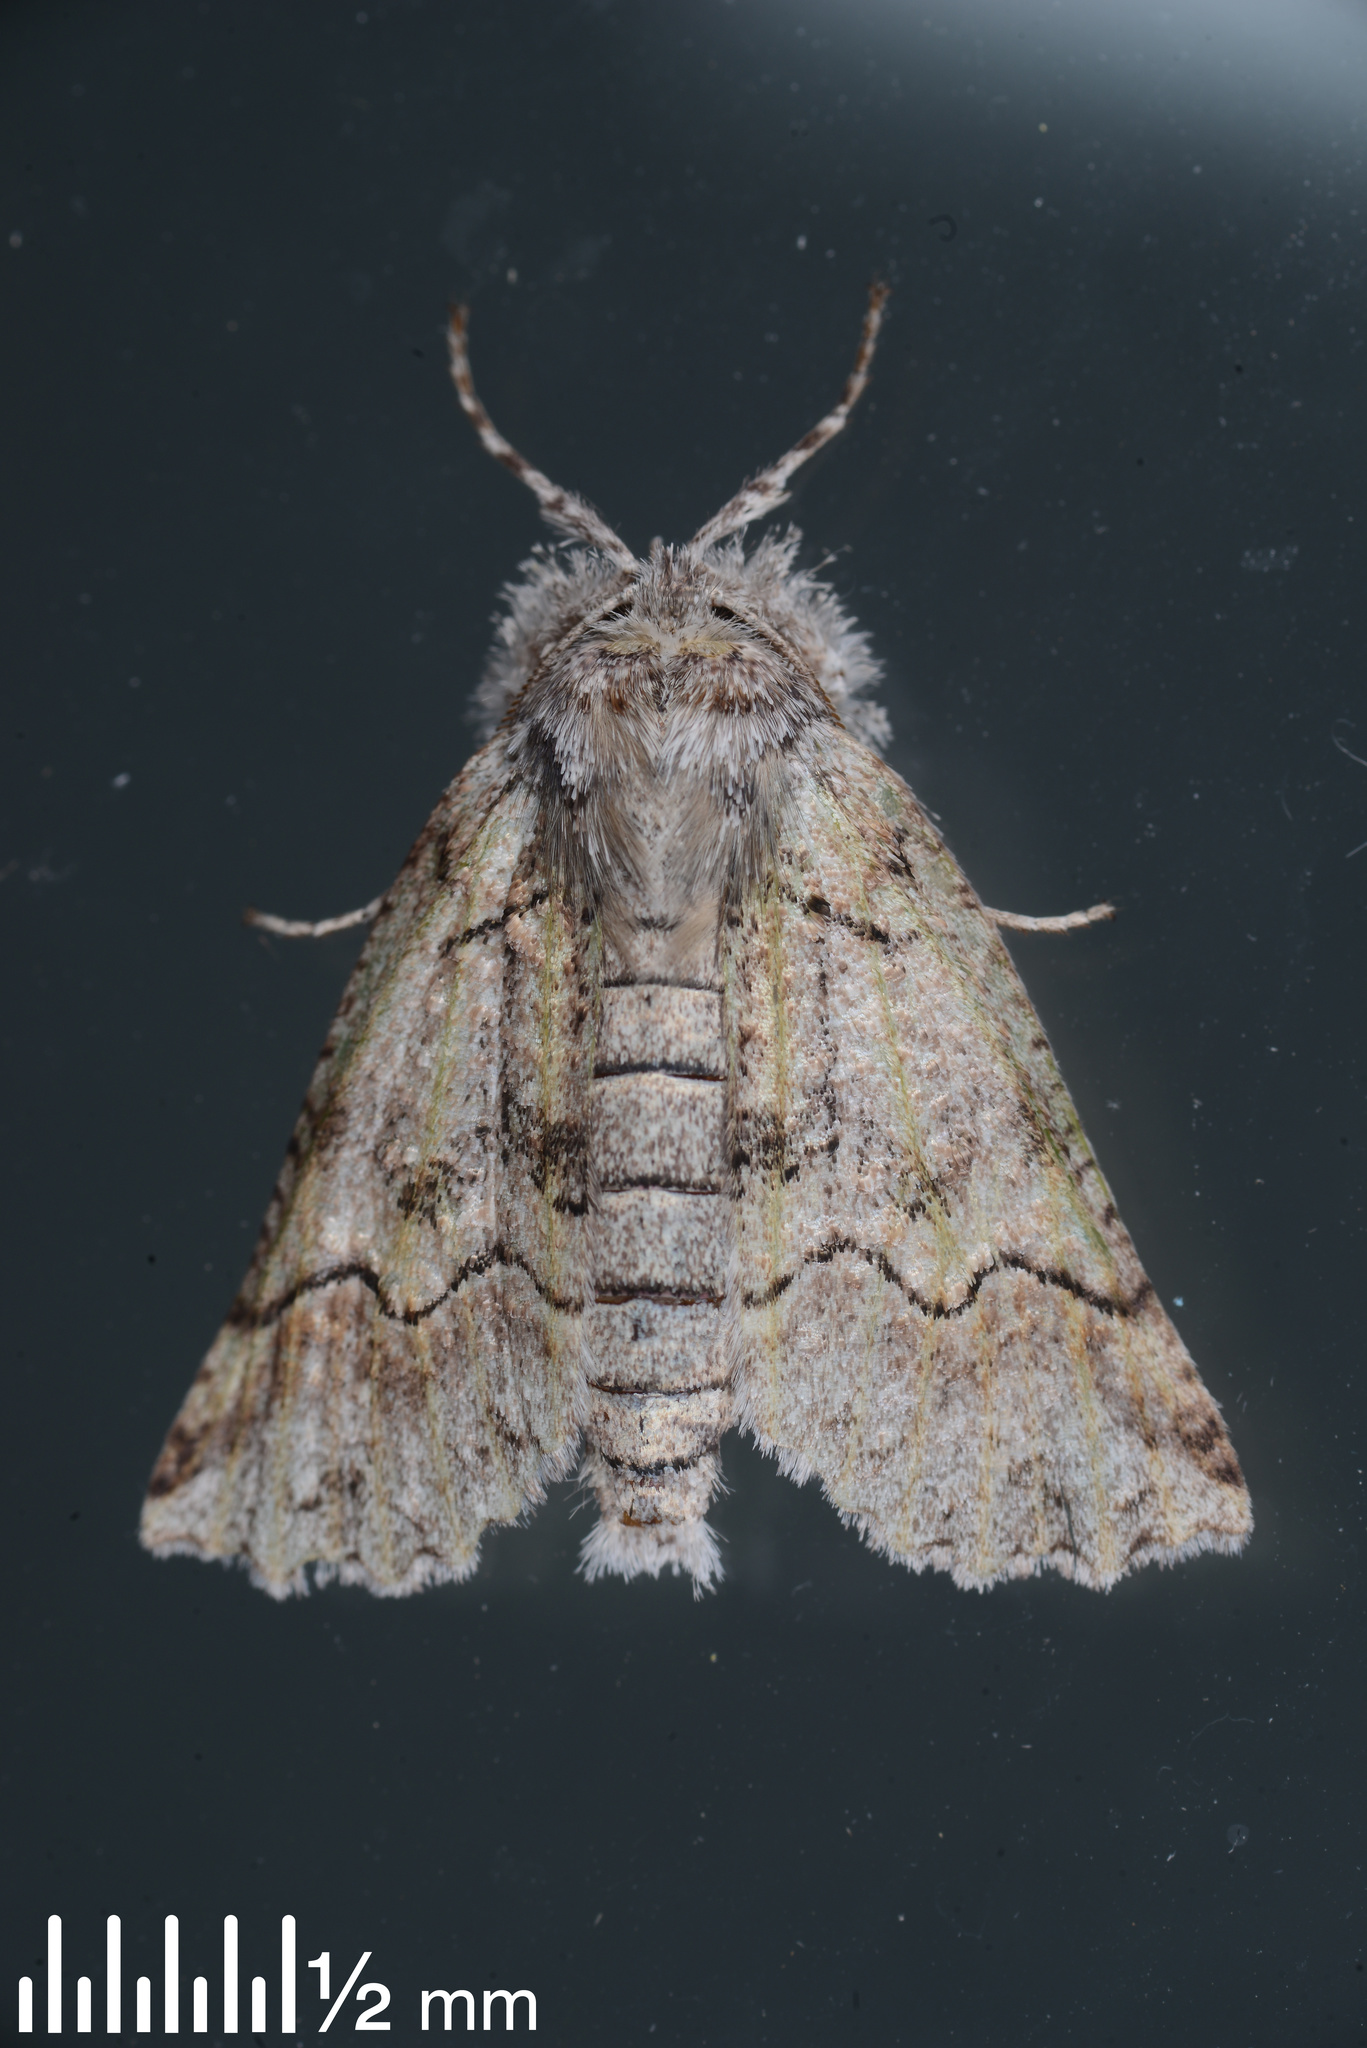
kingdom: Animalia
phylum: Arthropoda
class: Insecta
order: Lepidoptera
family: Geometridae
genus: Declana
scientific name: Declana floccosa
